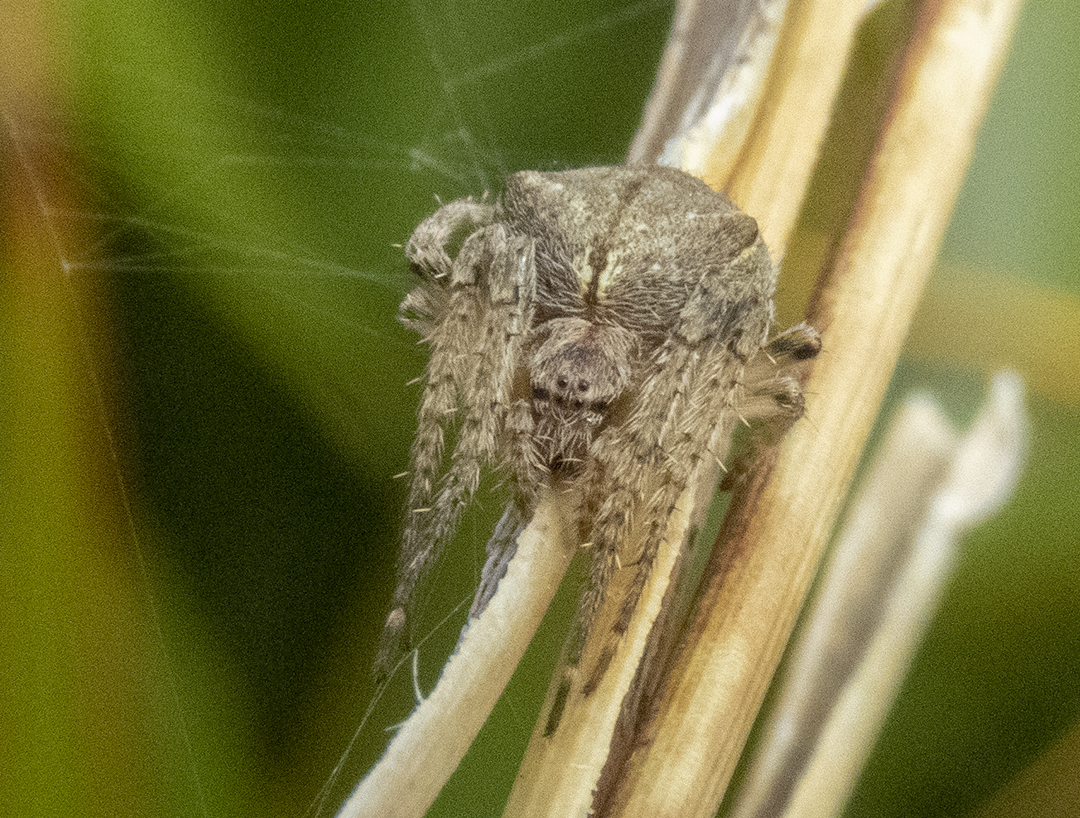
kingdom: Animalia
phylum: Arthropoda
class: Arachnida
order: Araneae
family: Araneidae
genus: Eriophora
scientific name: Eriophora pustulosa
